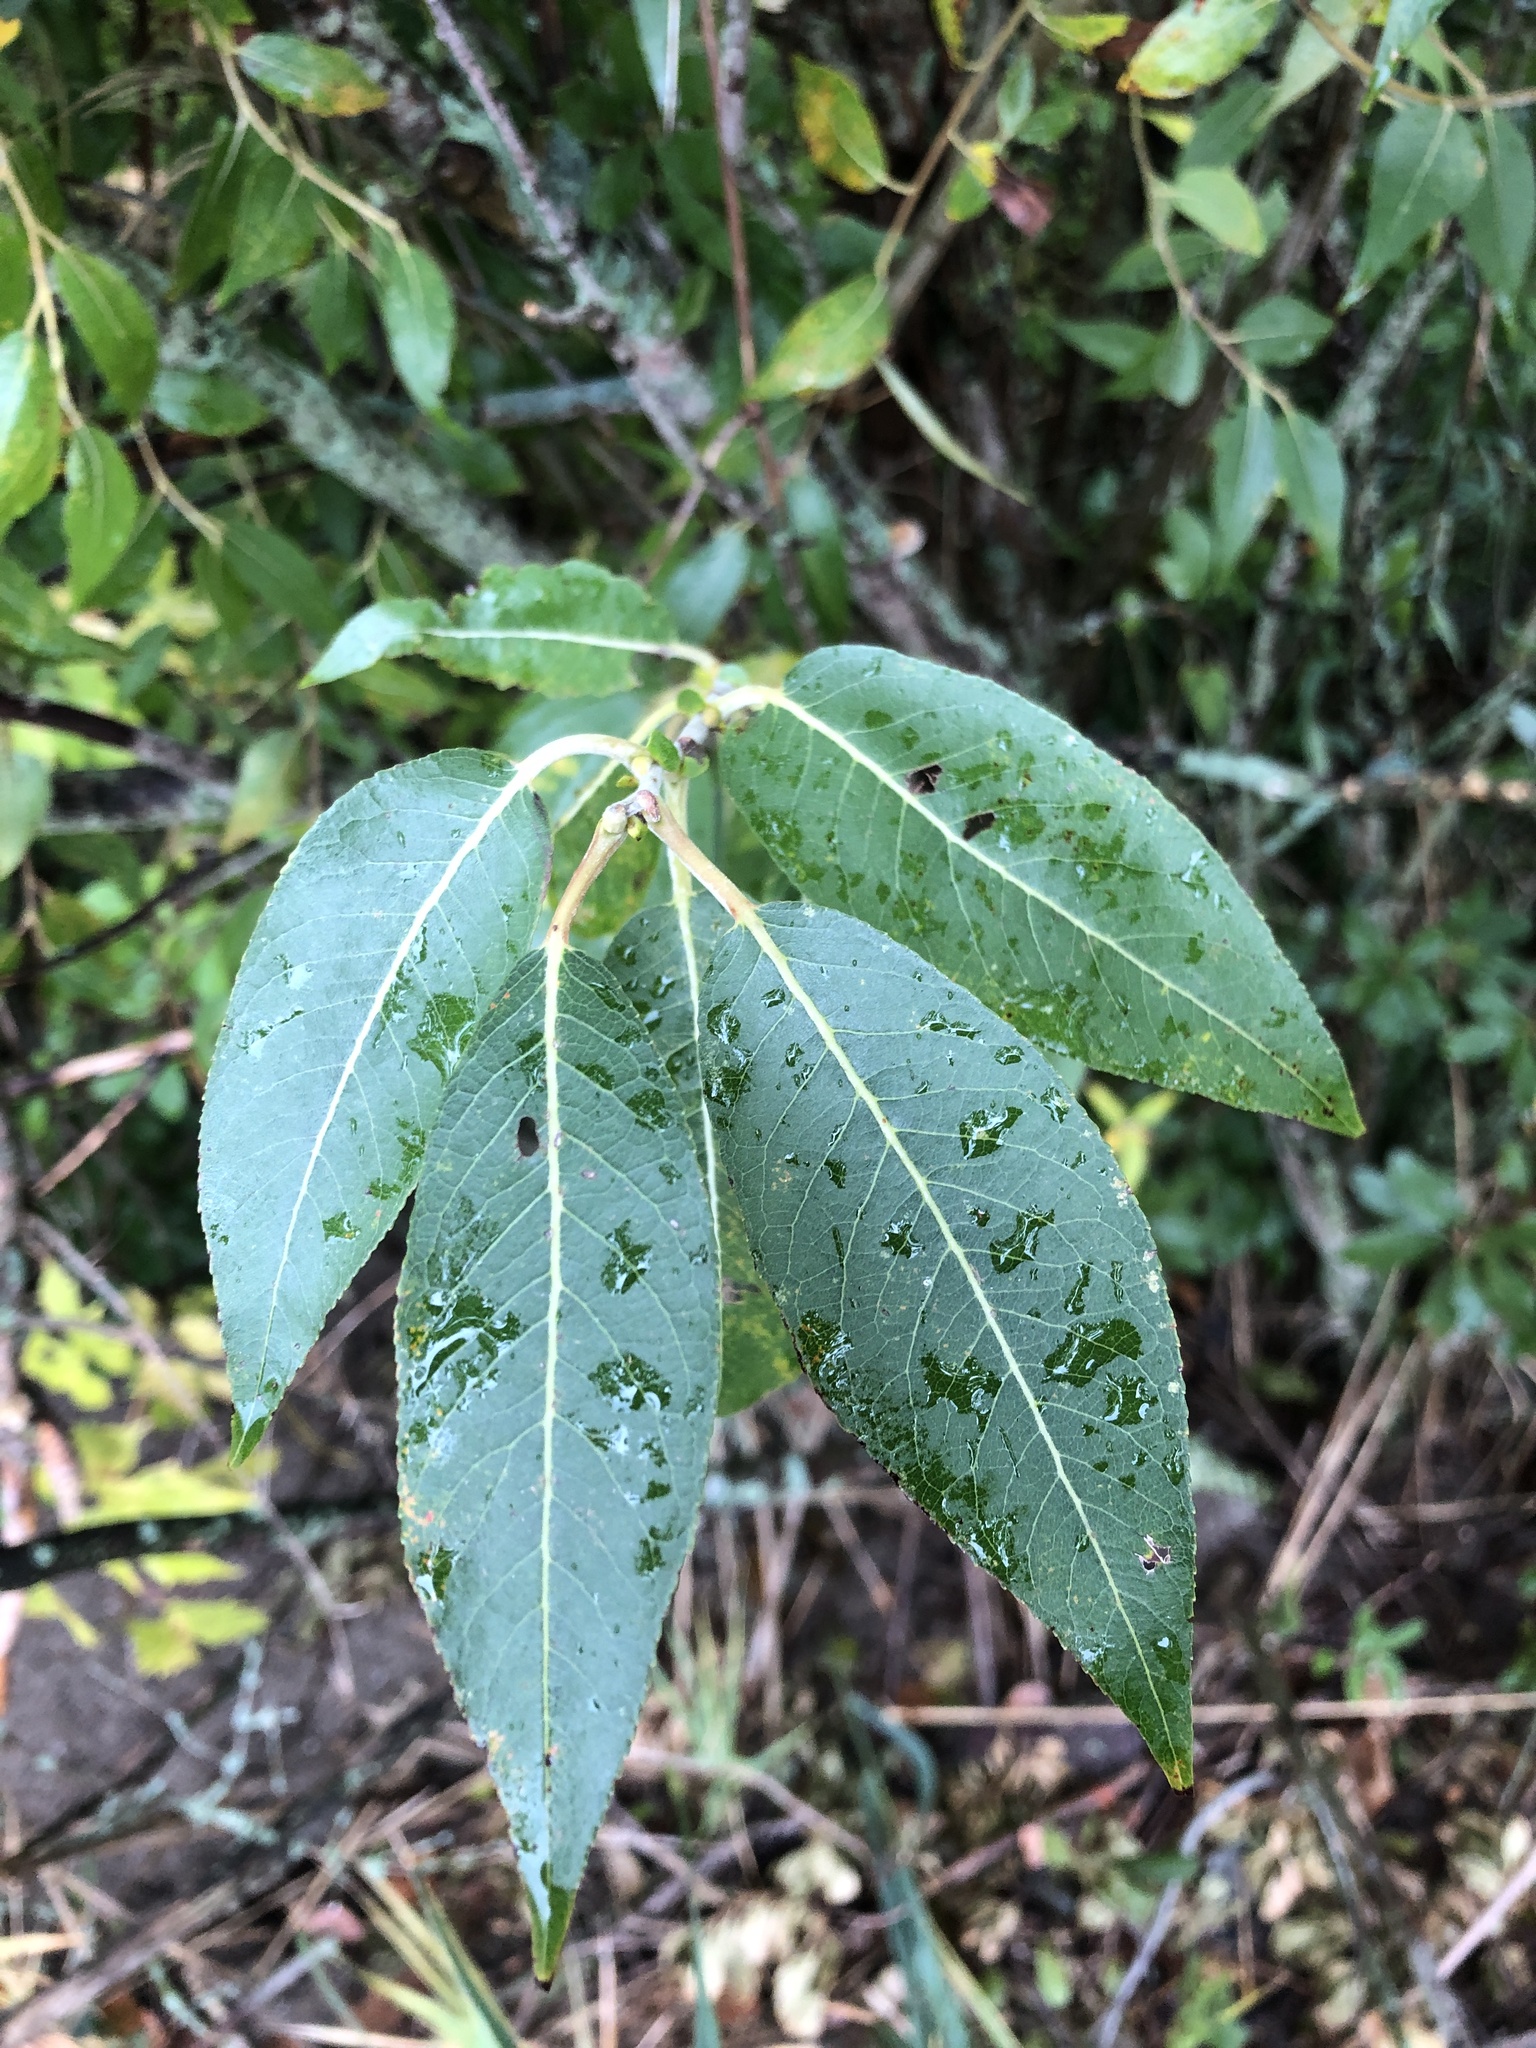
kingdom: Plantae
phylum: Tracheophyta
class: Magnoliopsida
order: Malpighiales
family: Salicaceae
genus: Salix
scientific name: Salix eriocephala
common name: Heart-leaved willow
